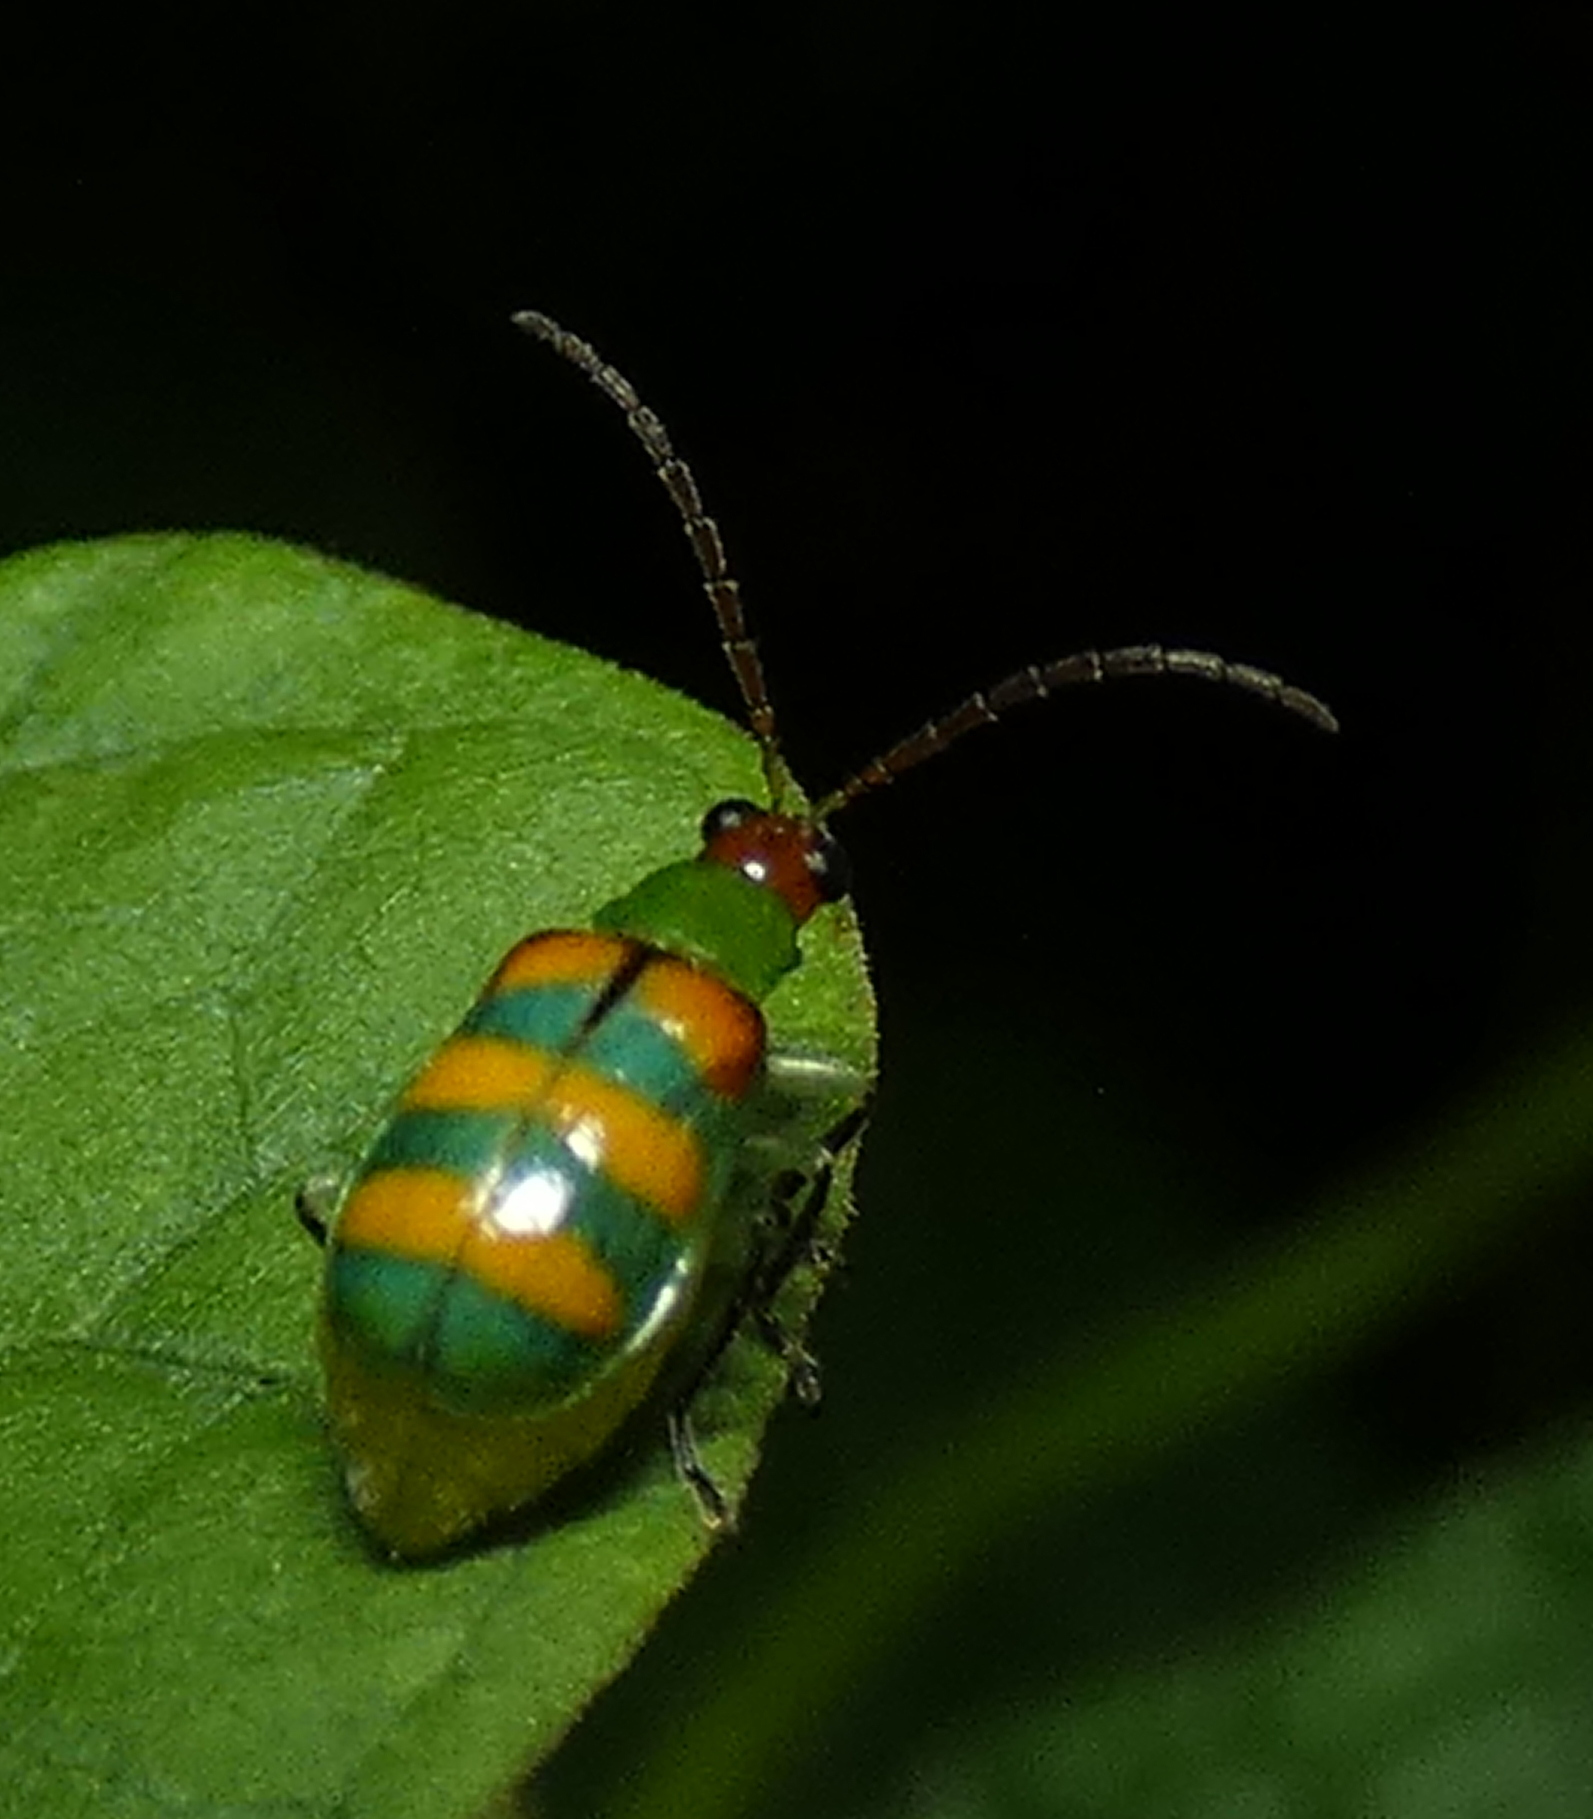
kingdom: Animalia
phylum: Arthropoda
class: Insecta
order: Coleoptera
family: Chrysomelidae
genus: Diabrotica
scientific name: Diabrotica speciosa
